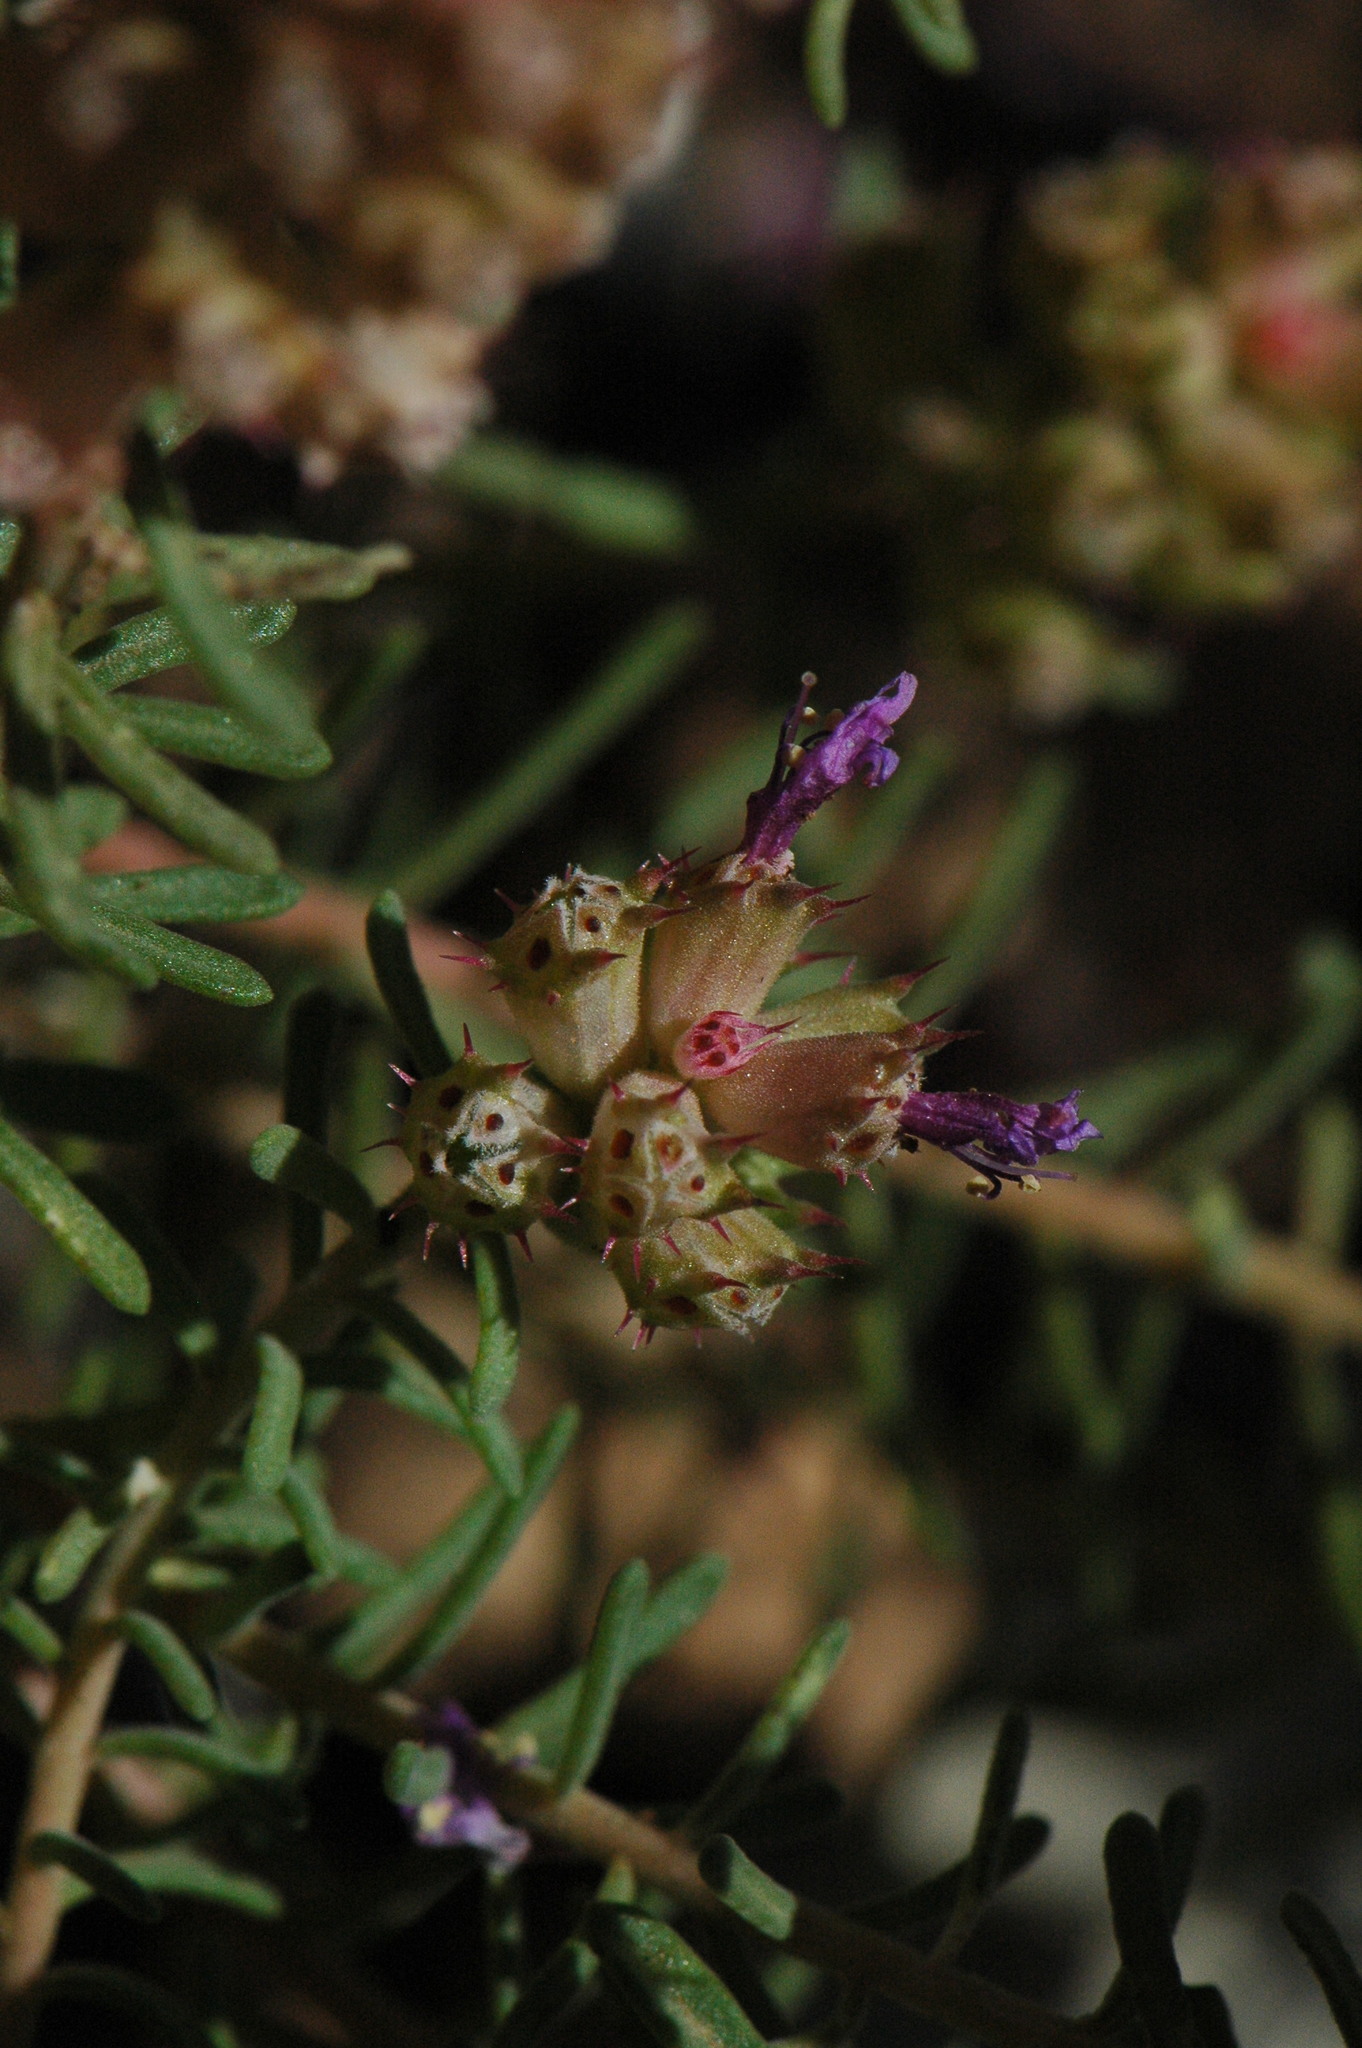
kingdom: Plantae
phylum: Tracheophyta
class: Magnoliopsida
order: Ericales
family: Primulaceae
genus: Coris
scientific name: Coris monspeliensis
